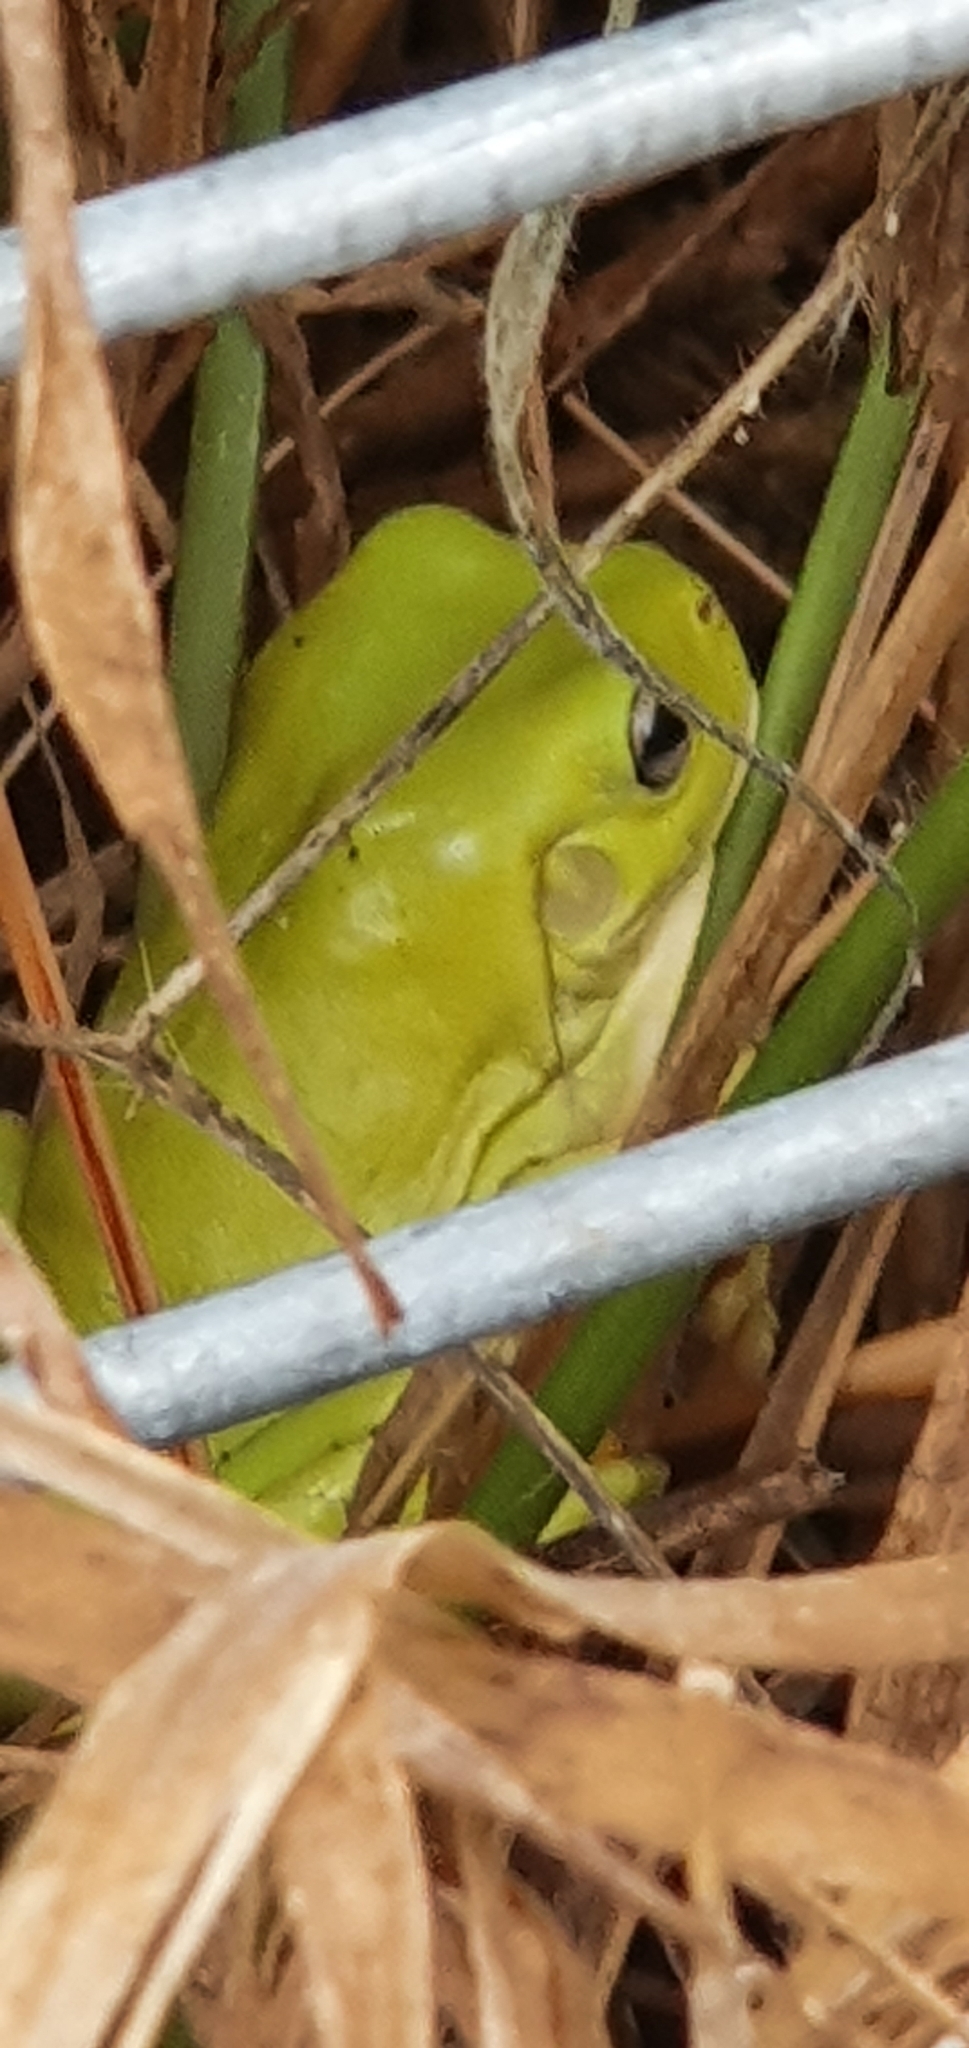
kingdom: Animalia
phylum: Chordata
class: Amphibia
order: Anura
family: Pelodryadidae
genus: Ranoidea
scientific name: Ranoidea caerulea
